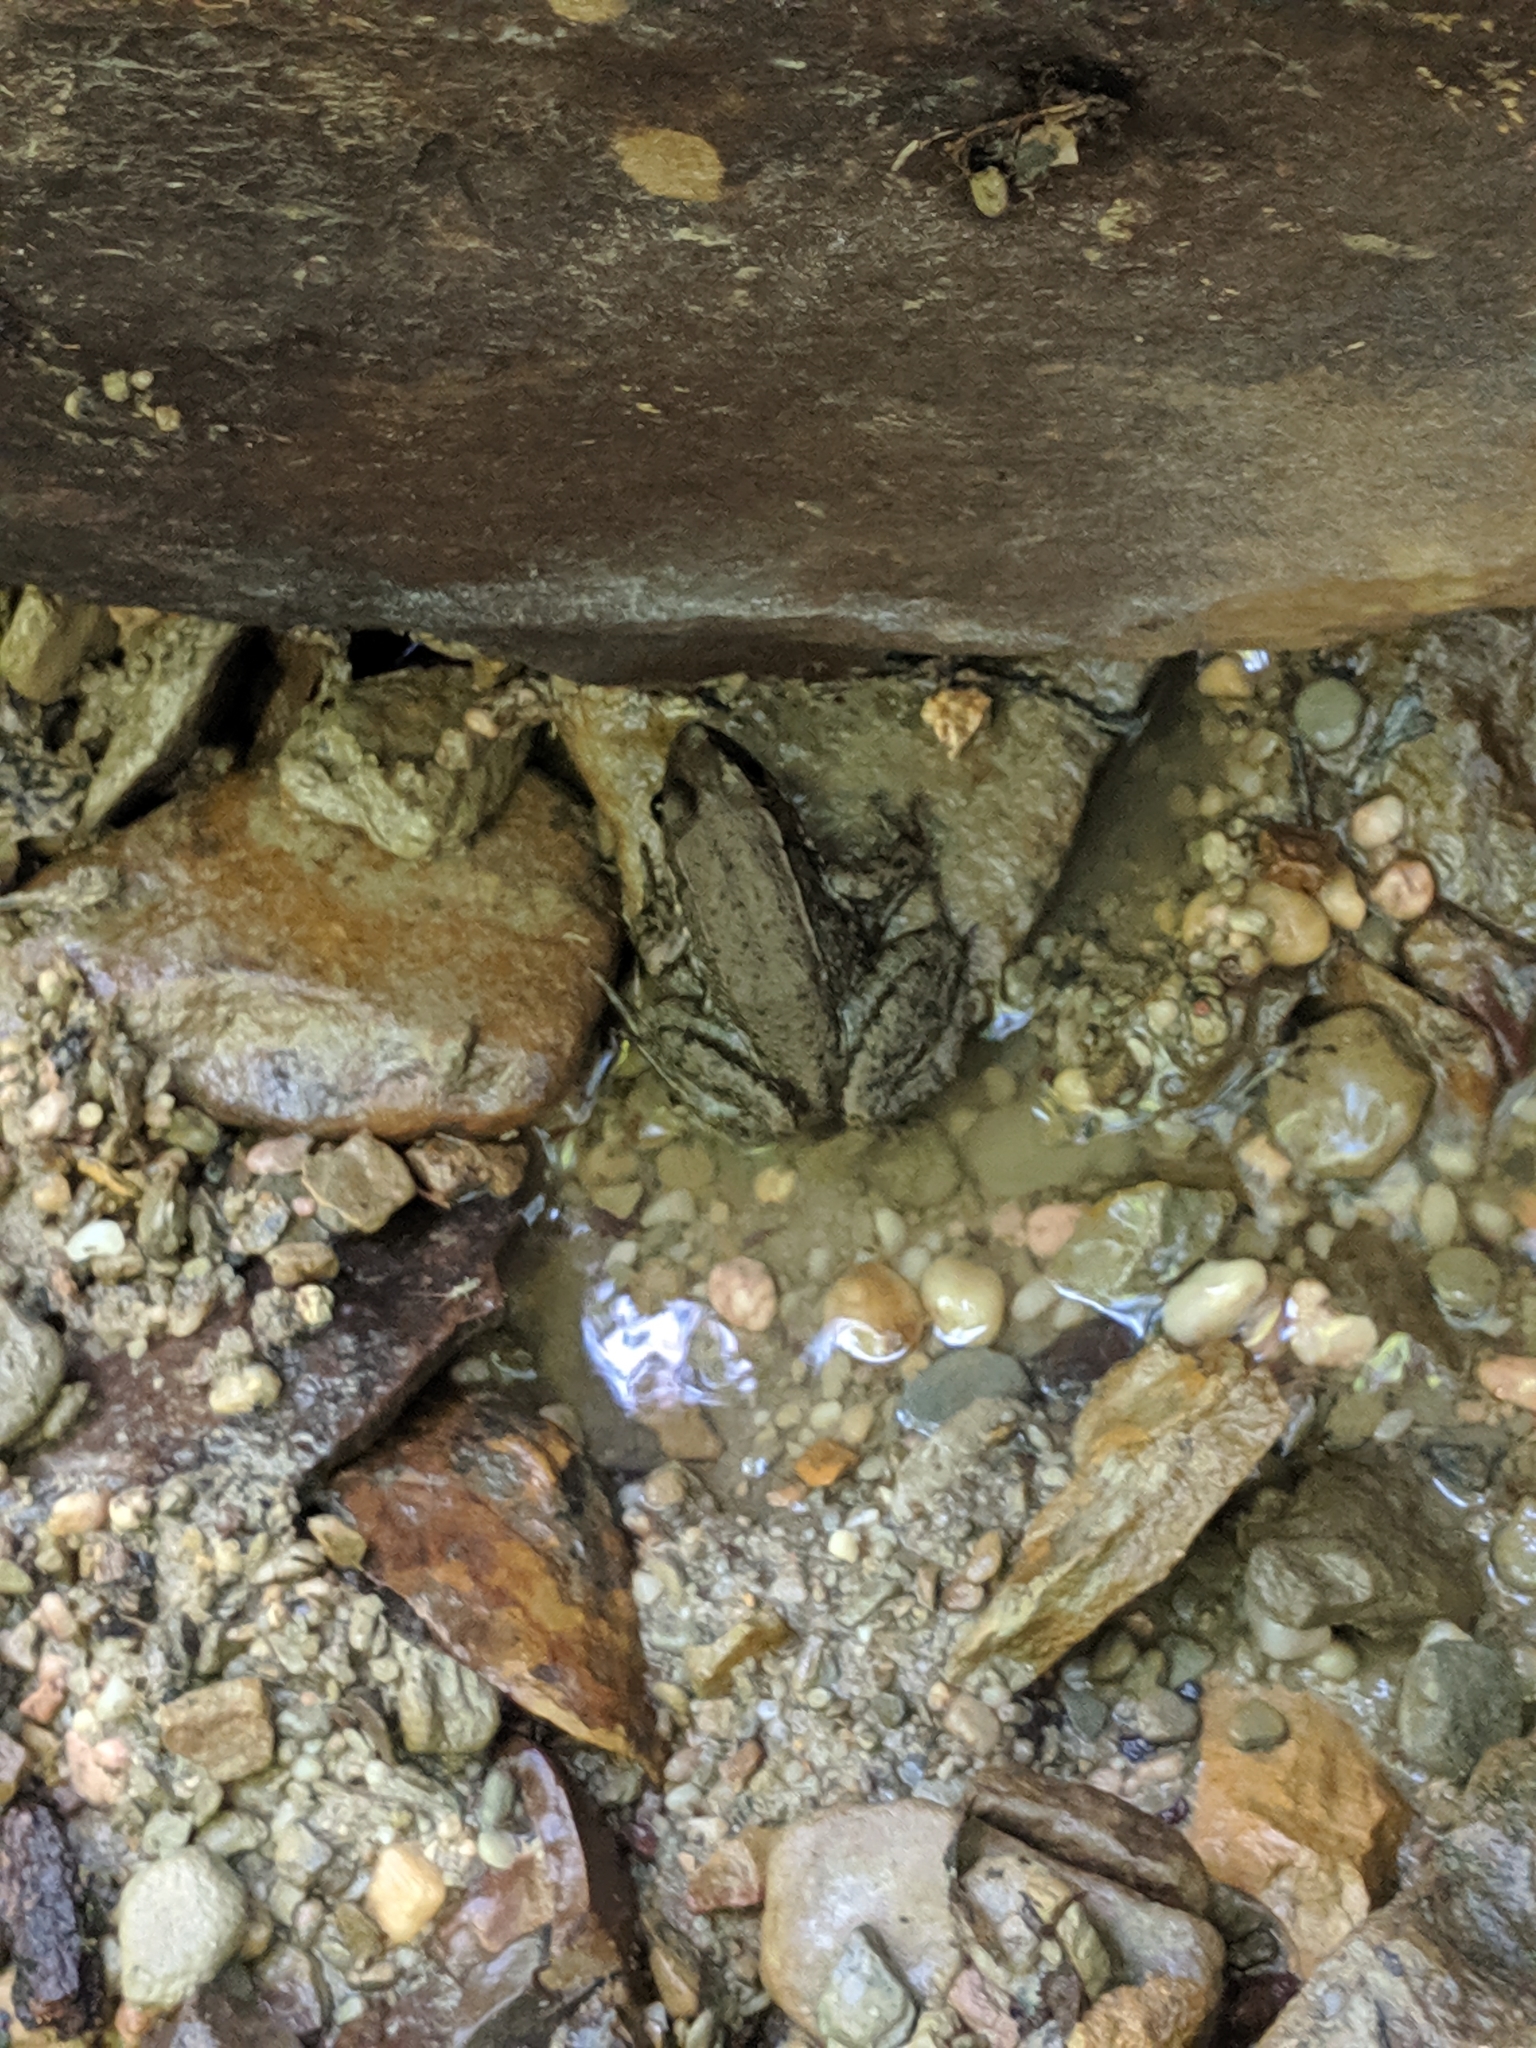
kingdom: Animalia
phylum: Chordata
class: Amphibia
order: Anura
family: Ranidae
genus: Lithobates
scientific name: Lithobates clamitans
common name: Green frog
